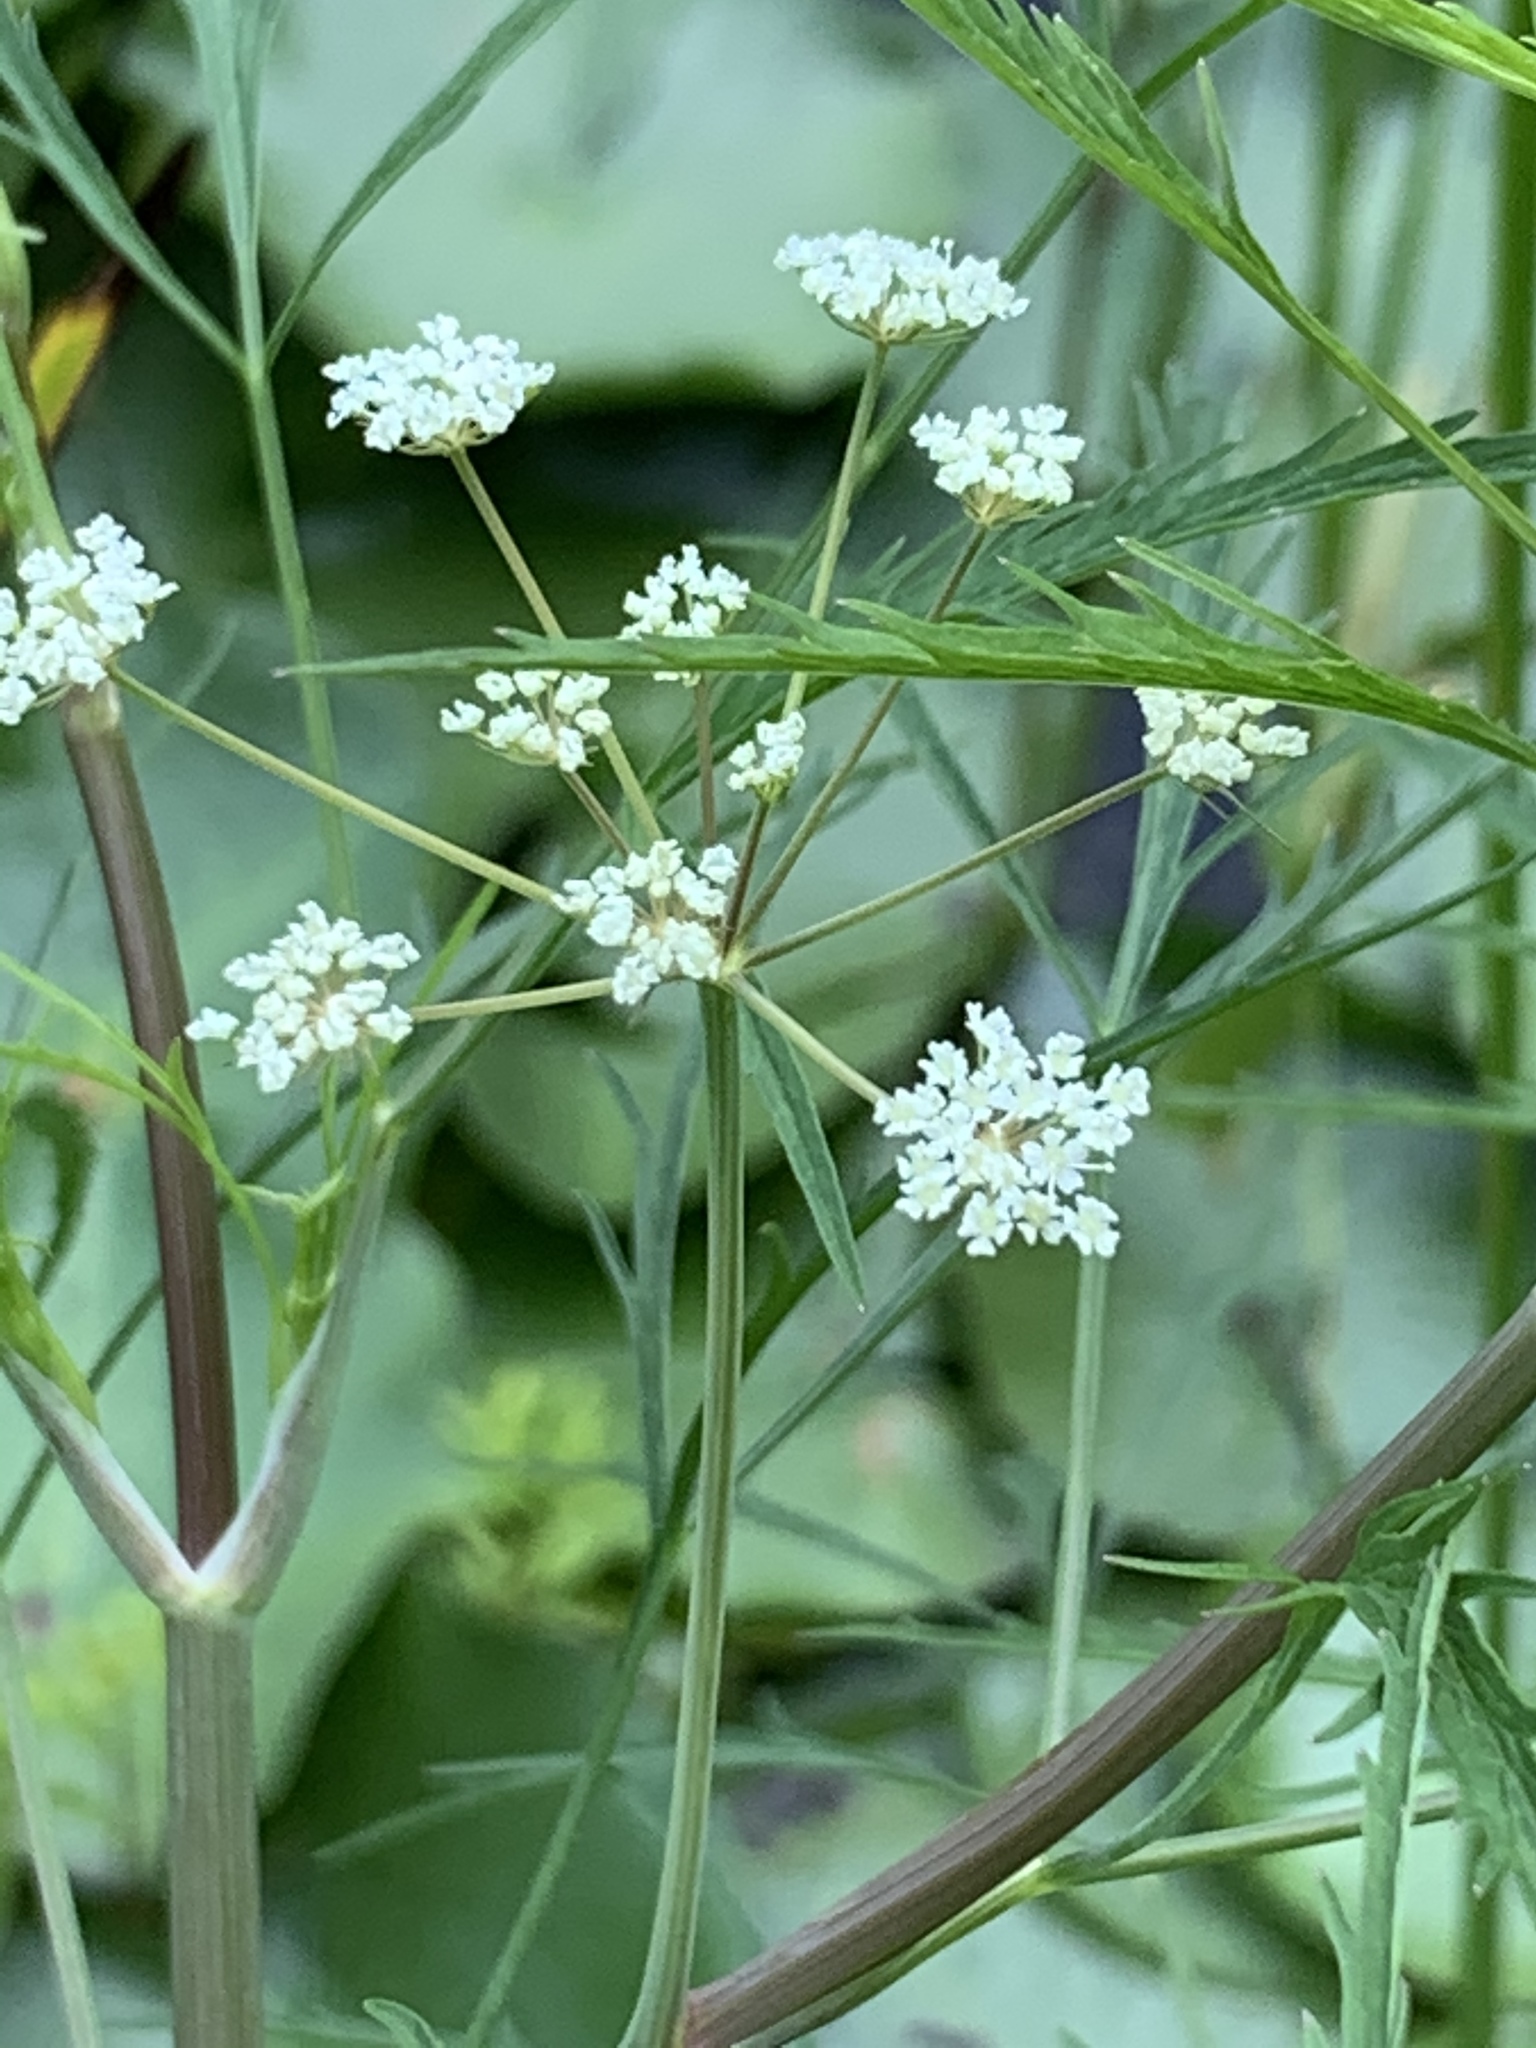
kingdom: Plantae
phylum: Tracheophyta
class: Magnoliopsida
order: Apiales
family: Apiaceae
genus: Cicuta
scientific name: Cicuta bulbifera
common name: Bulb-bearing water-hemlock
